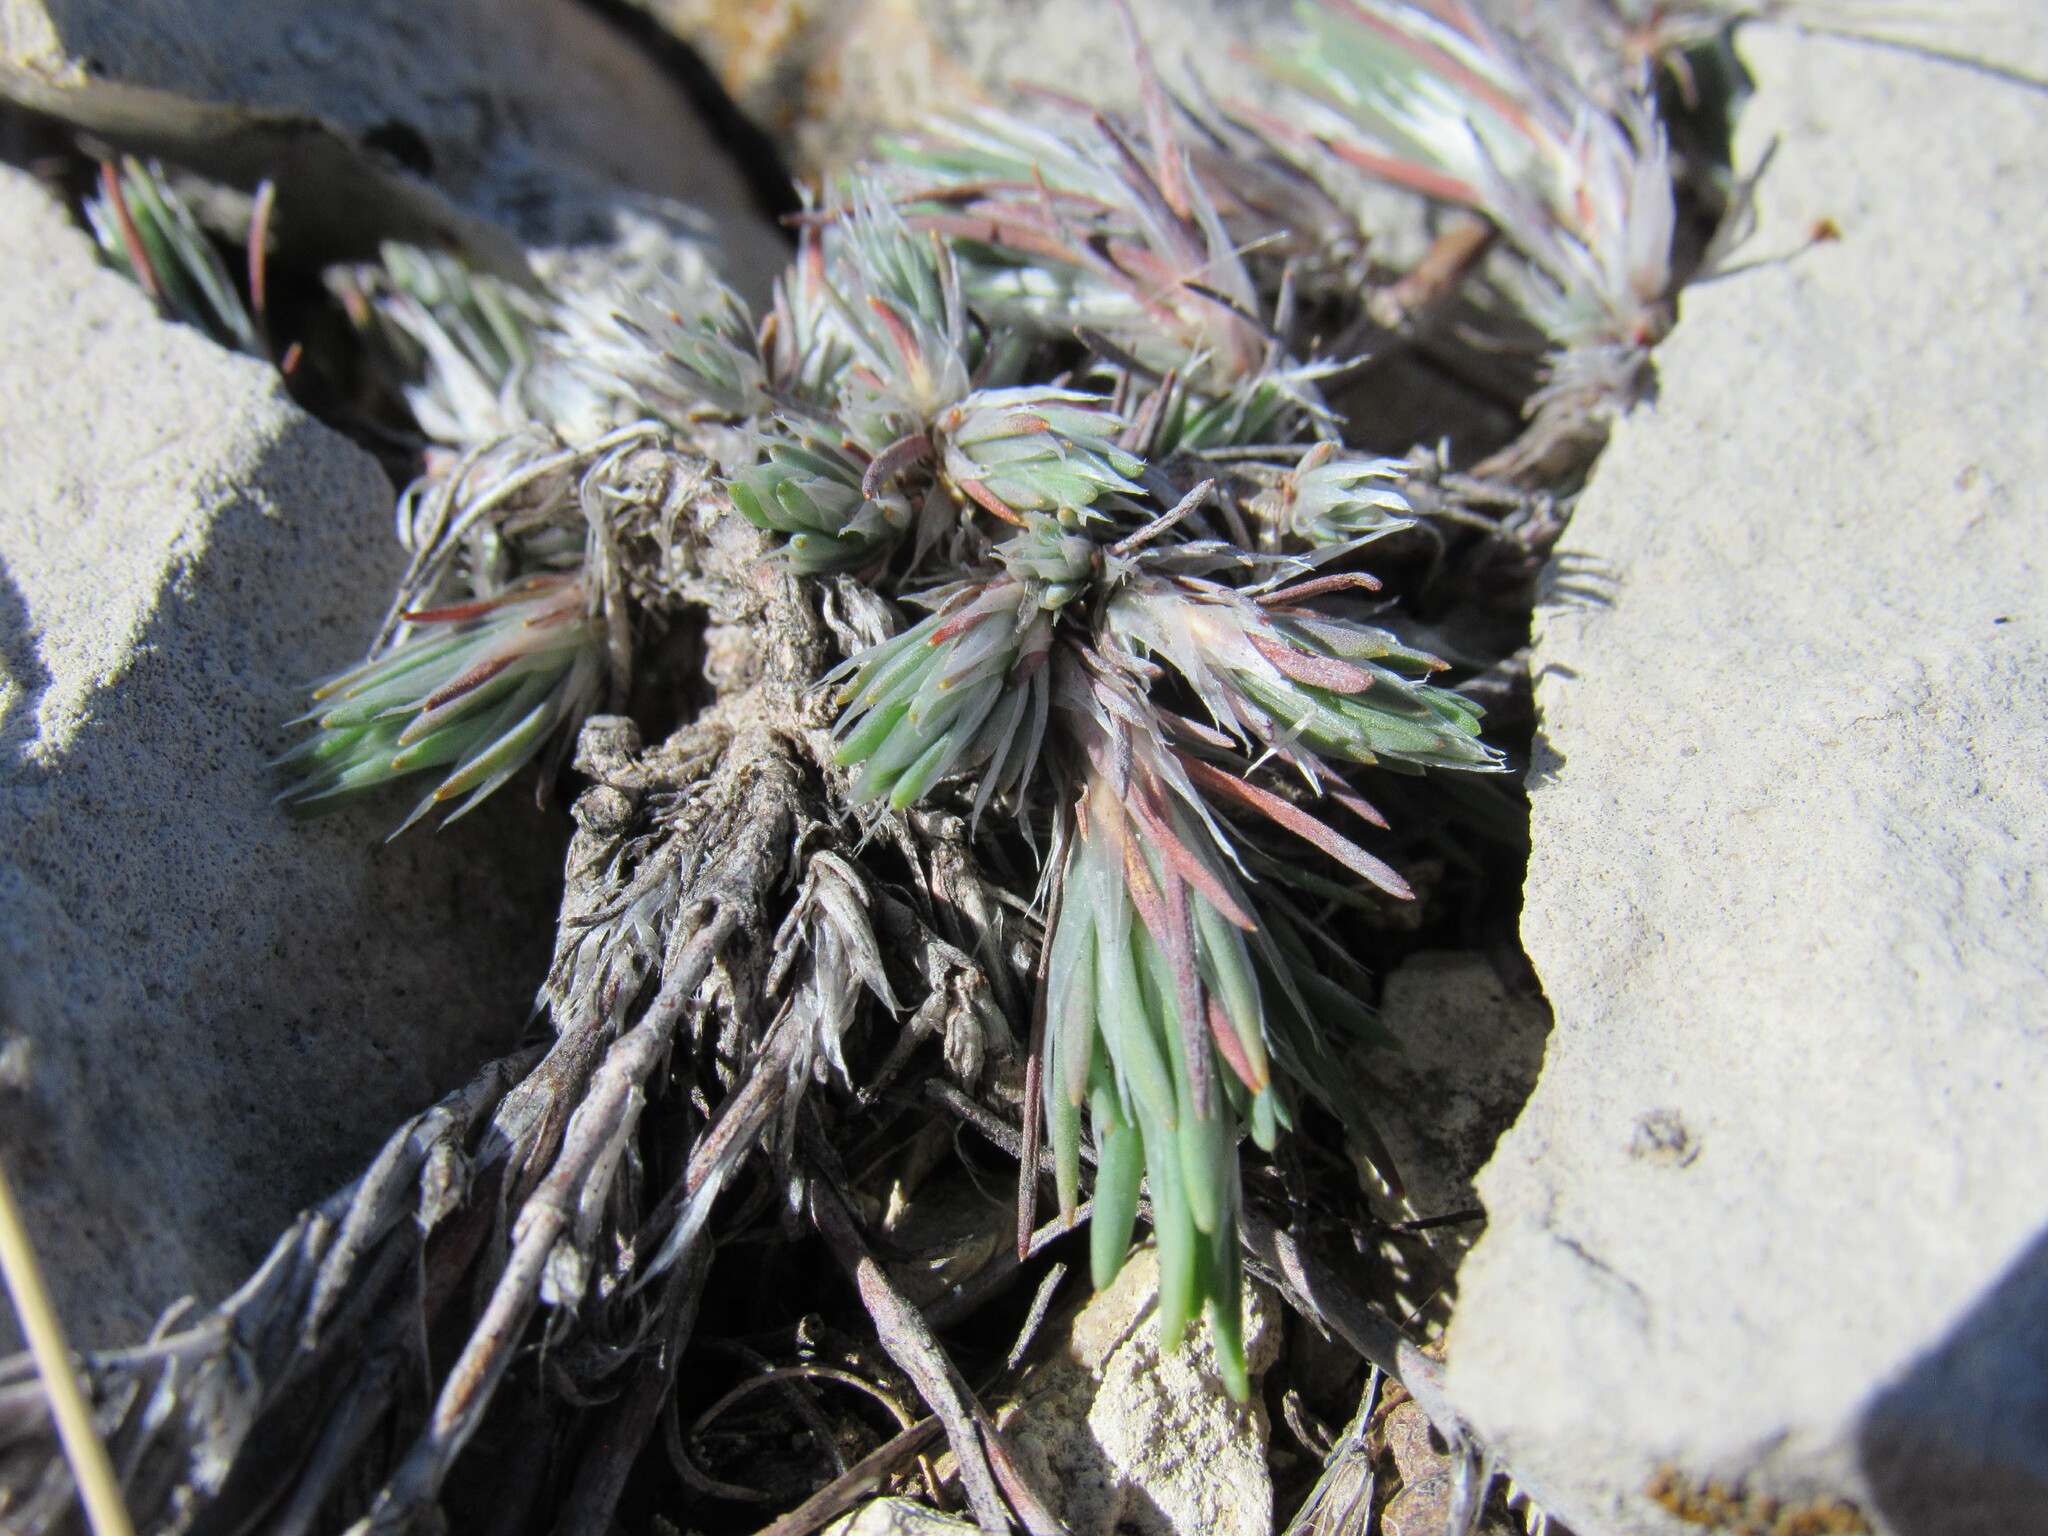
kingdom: Plantae
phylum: Tracheophyta
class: Magnoliopsida
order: Caryophyllales
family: Caryophyllaceae
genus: Paronychia
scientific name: Paronychia jamesii
